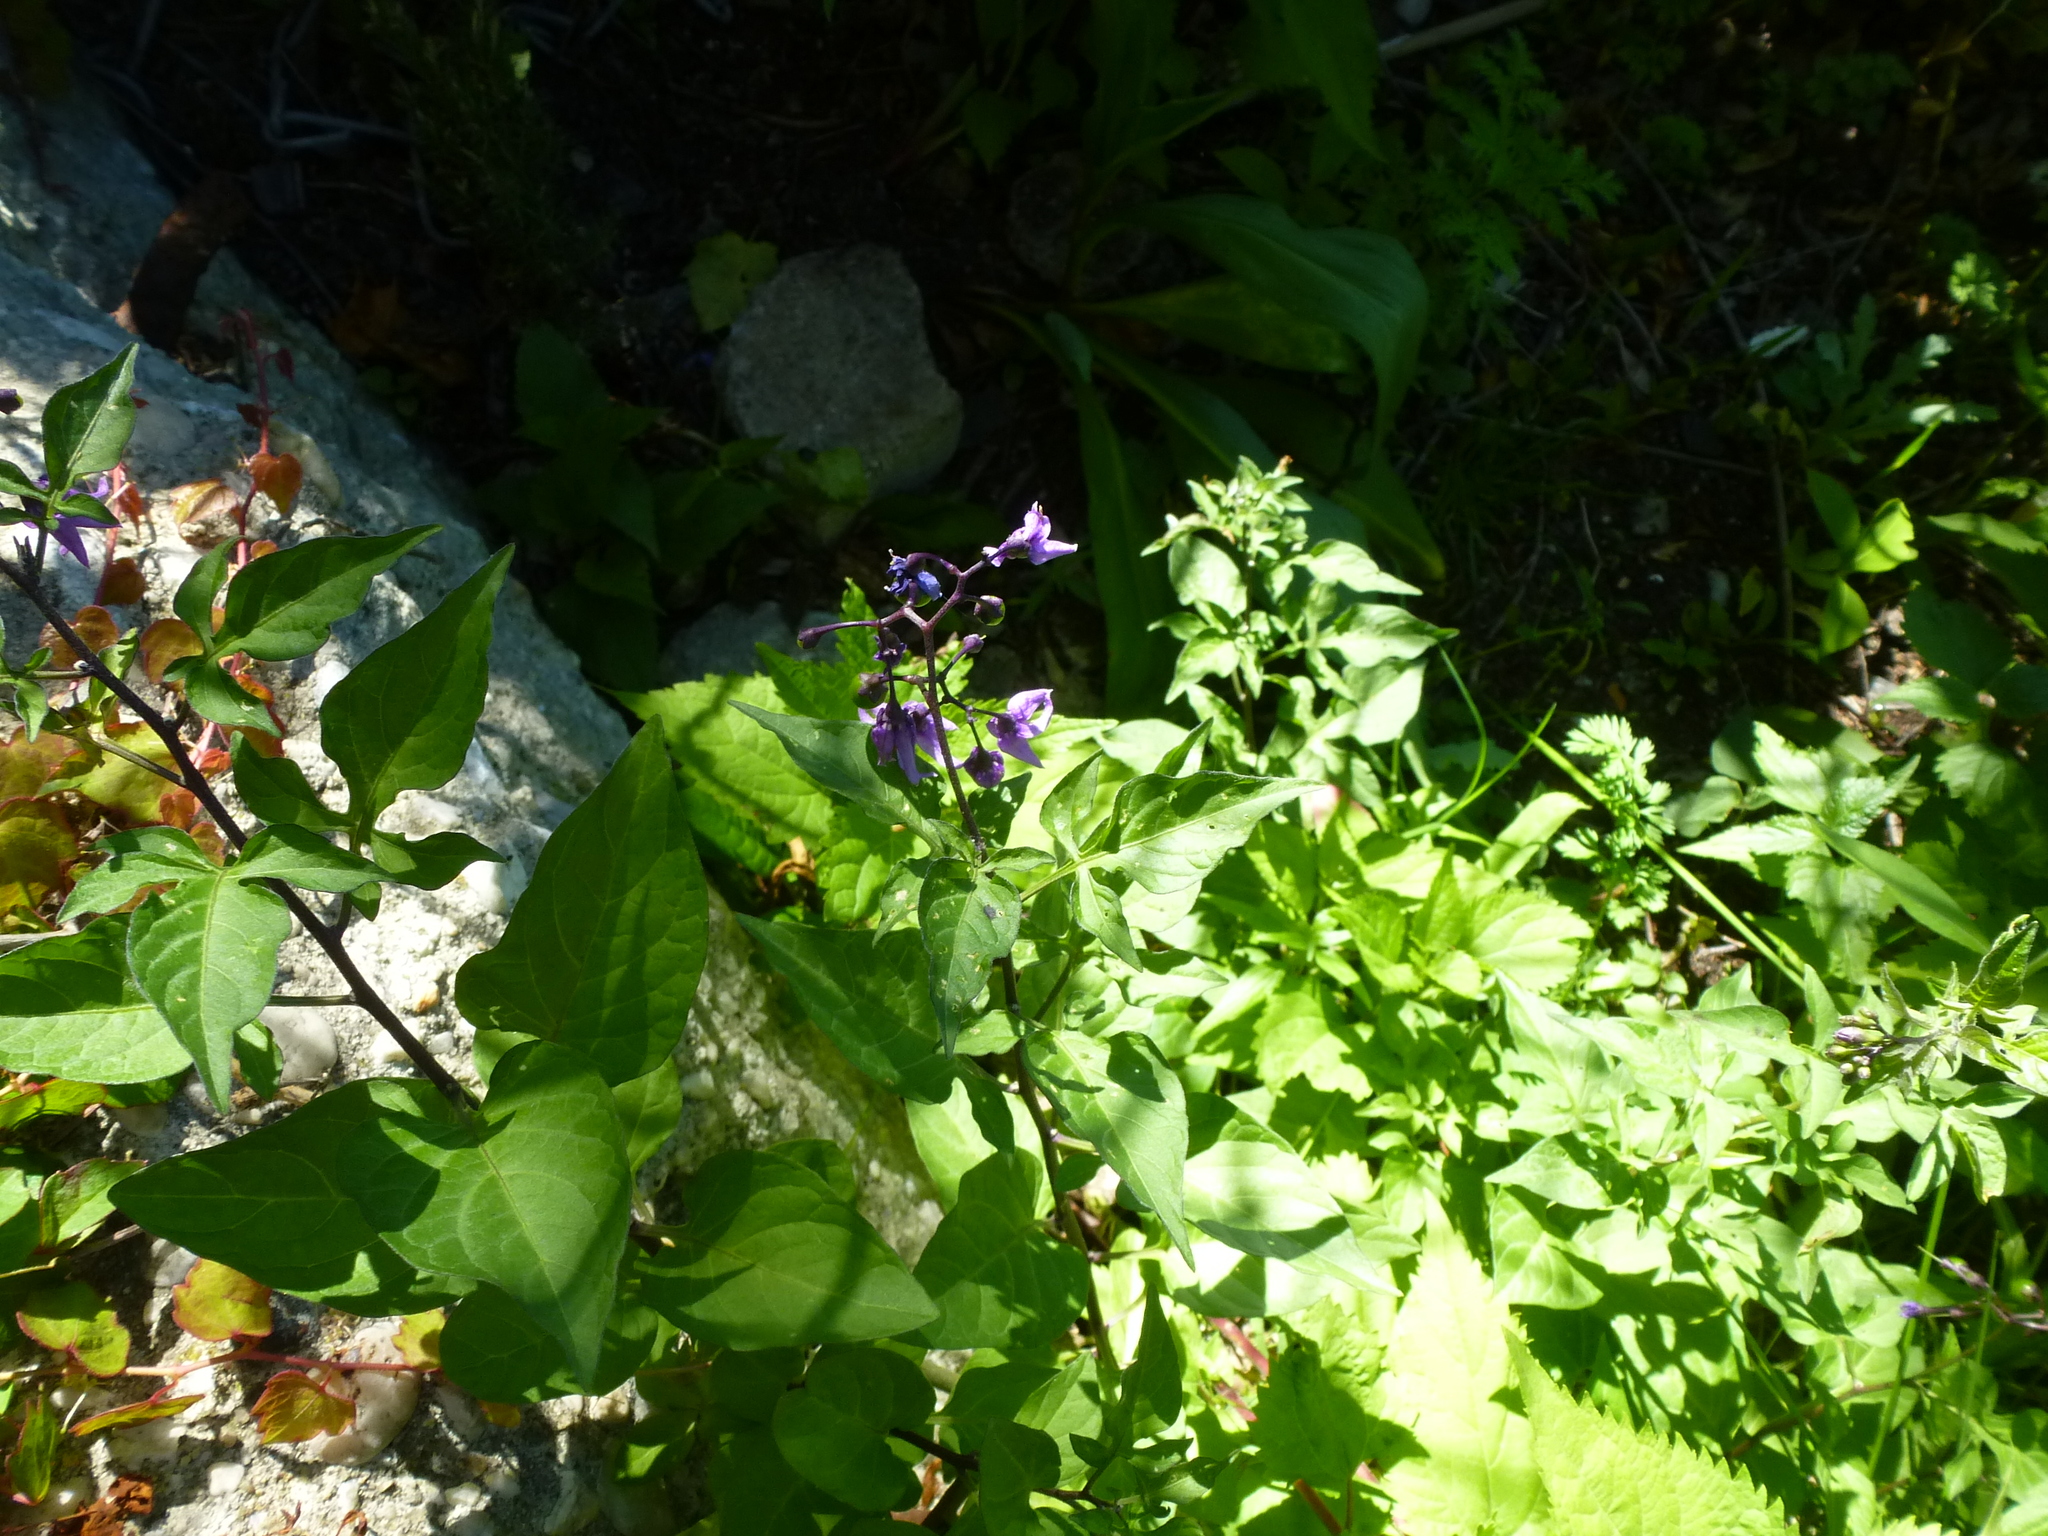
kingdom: Plantae
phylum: Tracheophyta
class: Magnoliopsida
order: Solanales
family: Solanaceae
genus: Solanum
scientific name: Solanum dulcamara
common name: Climbing nightshade
